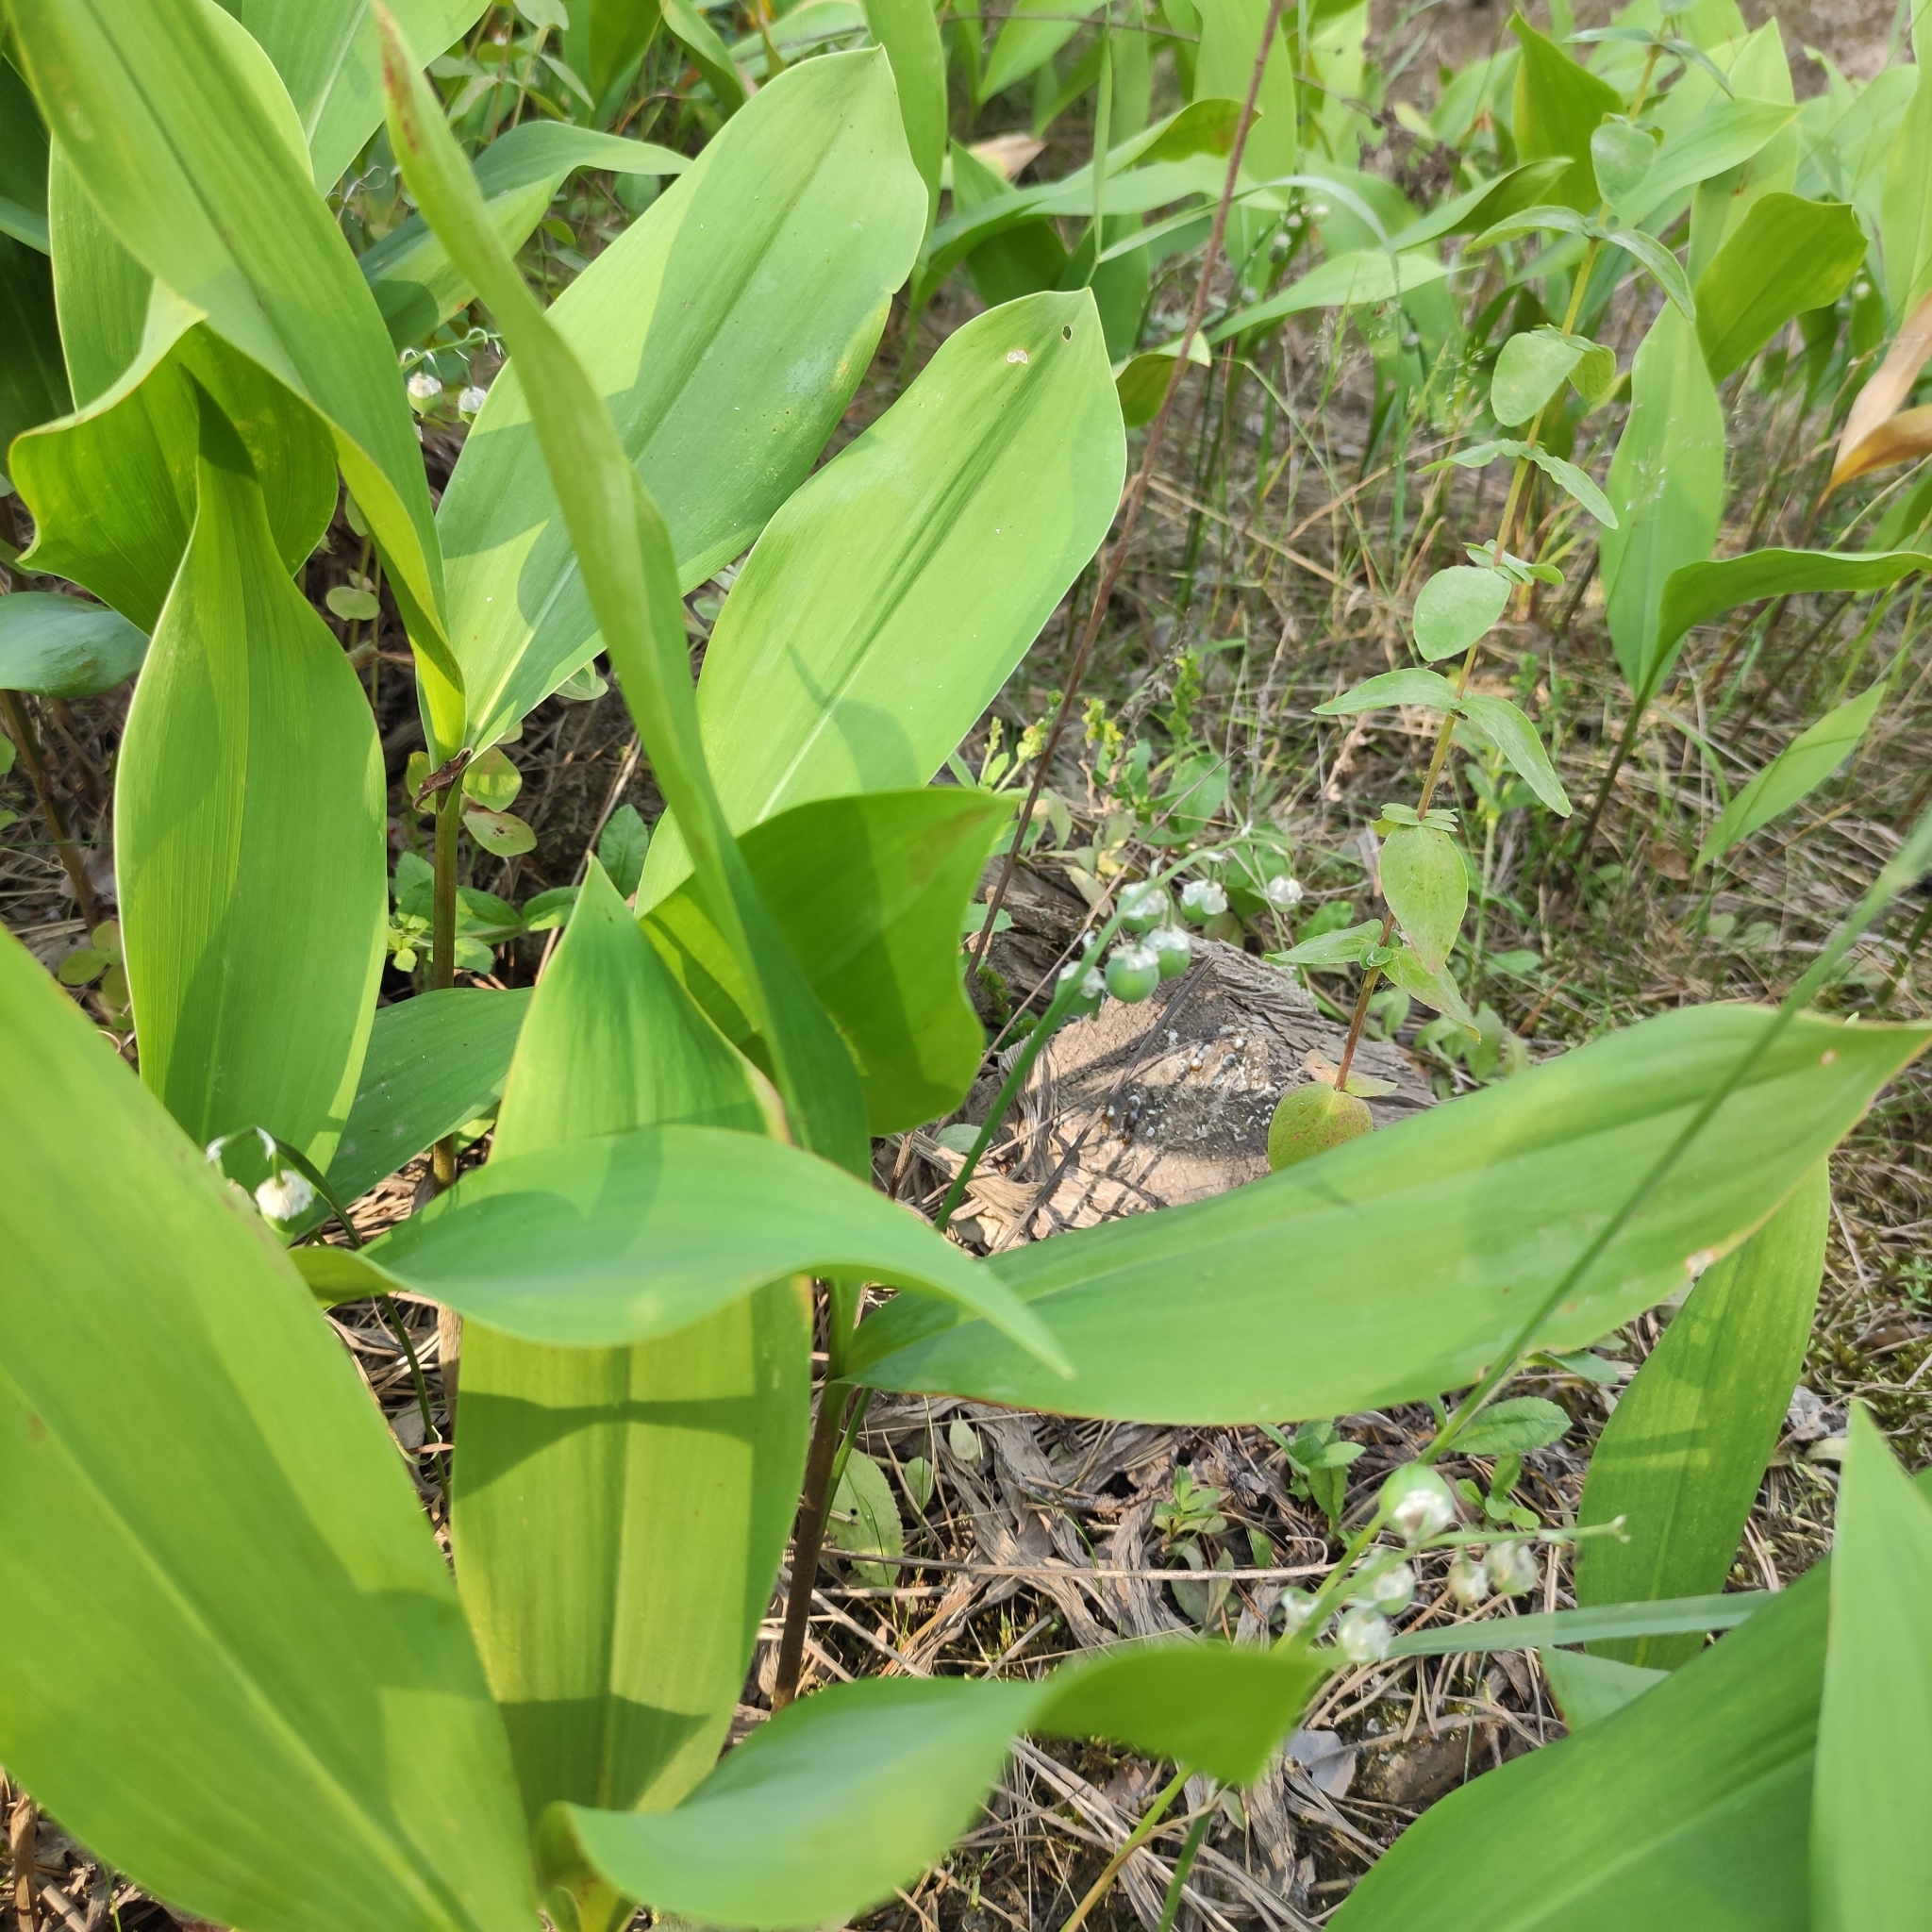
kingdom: Plantae
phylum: Tracheophyta
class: Liliopsida
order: Asparagales
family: Asparagaceae
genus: Convallaria
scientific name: Convallaria majalis
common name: Lily-of-the-valley
